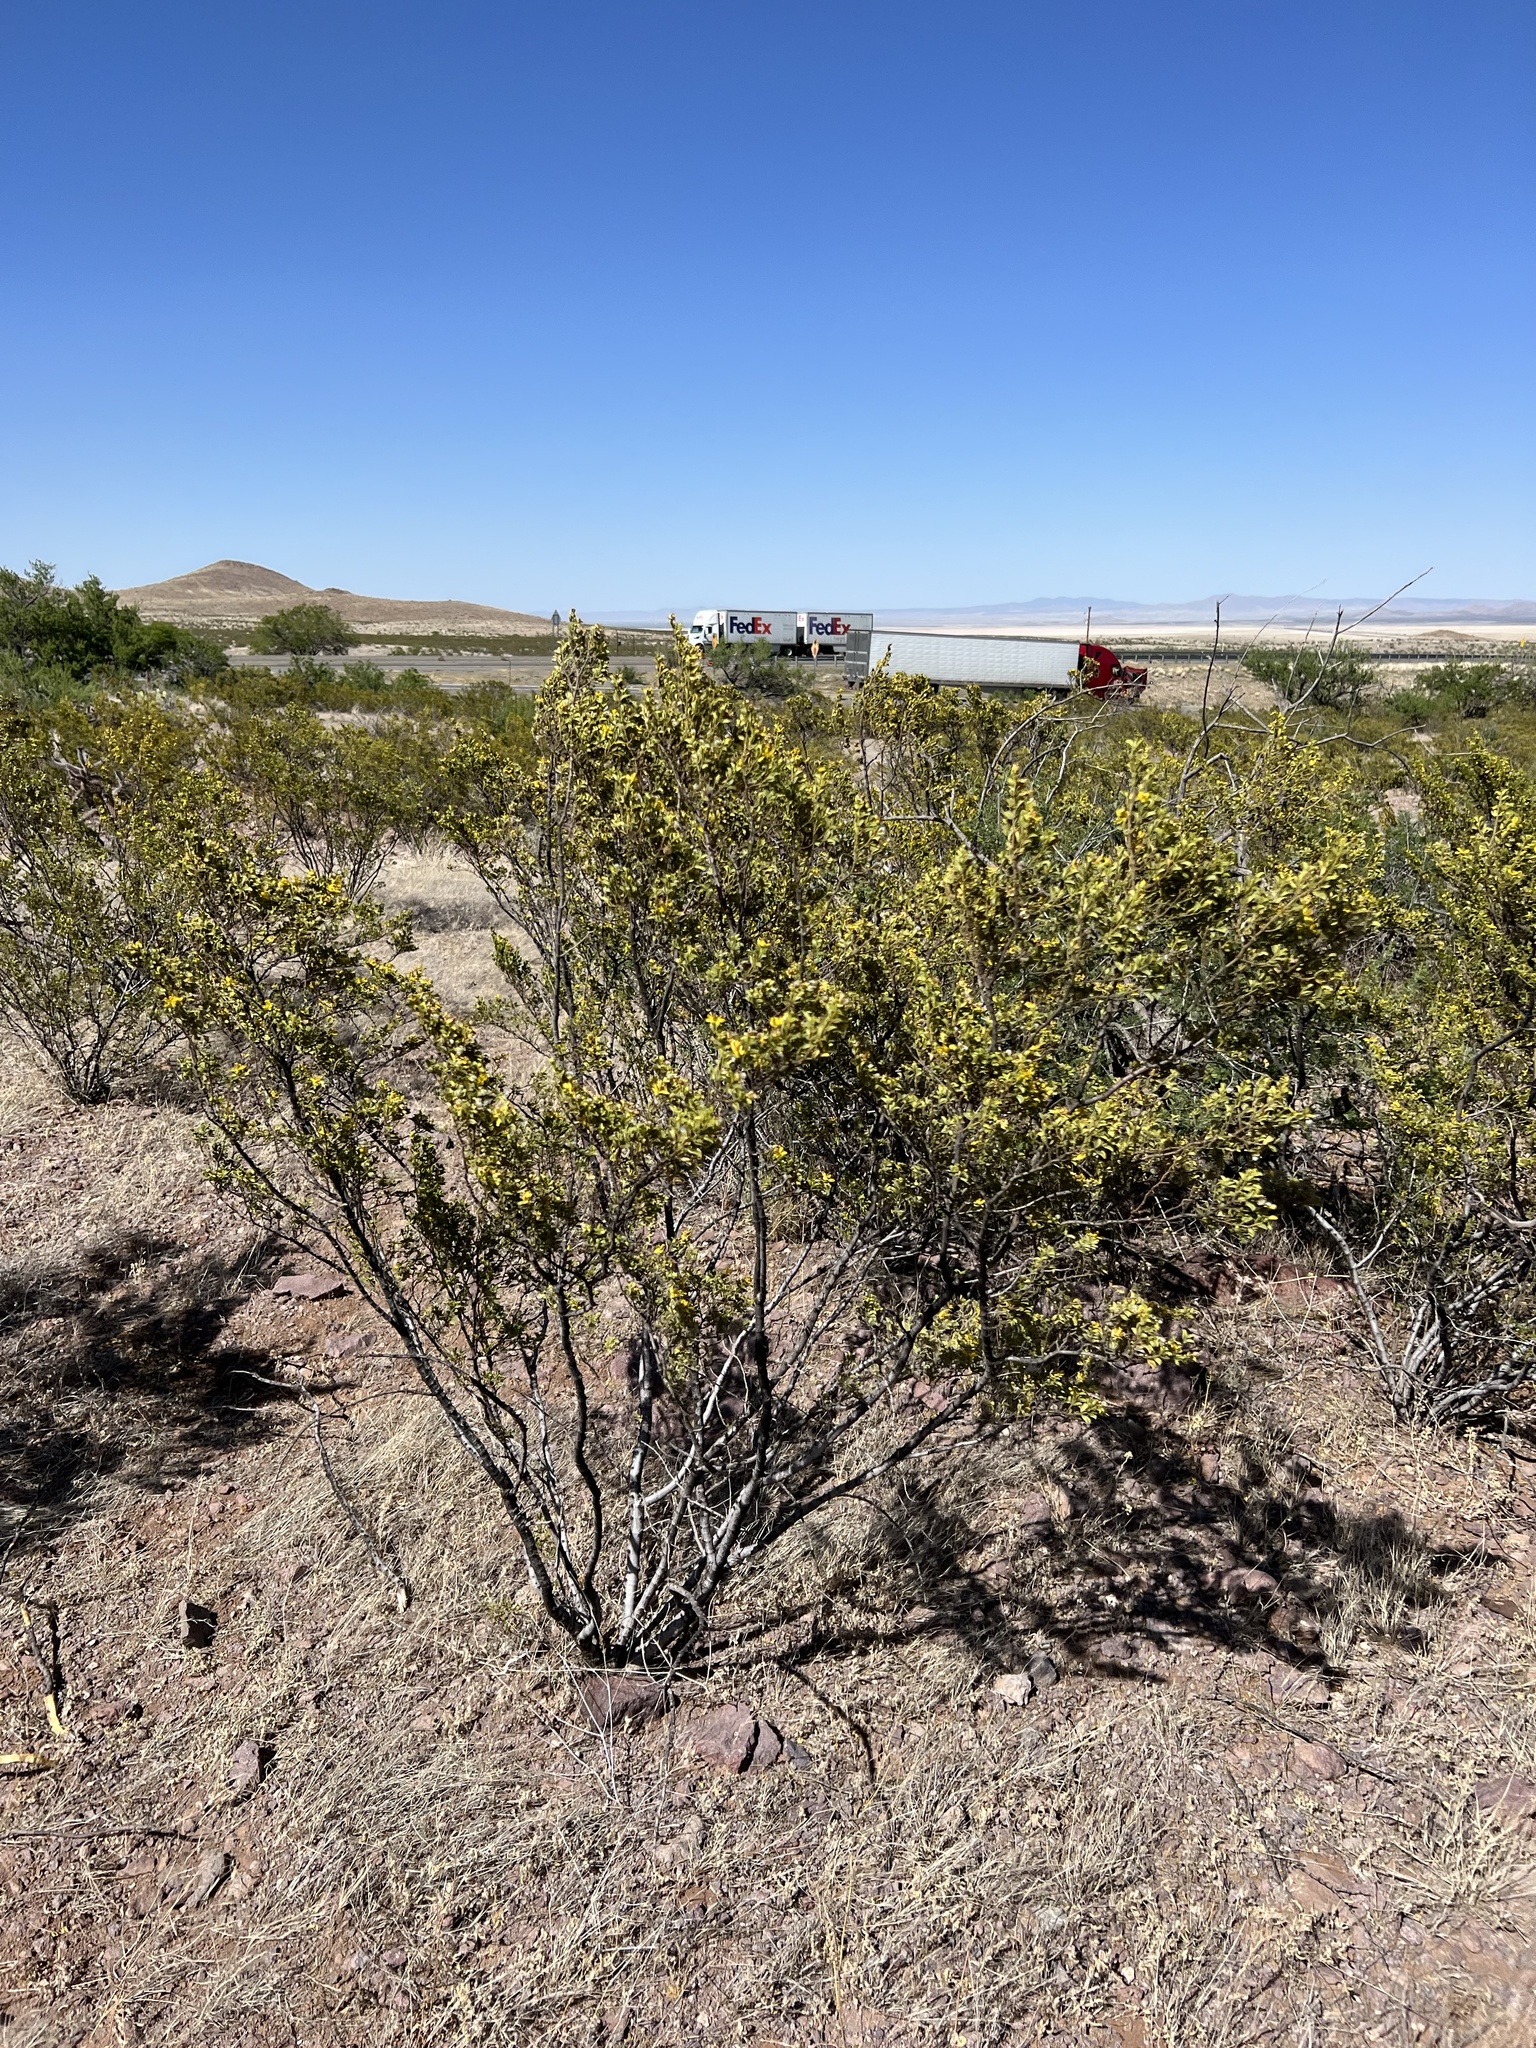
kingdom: Plantae
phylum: Tracheophyta
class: Magnoliopsida
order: Zygophyllales
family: Zygophyllaceae
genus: Larrea
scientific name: Larrea tridentata
